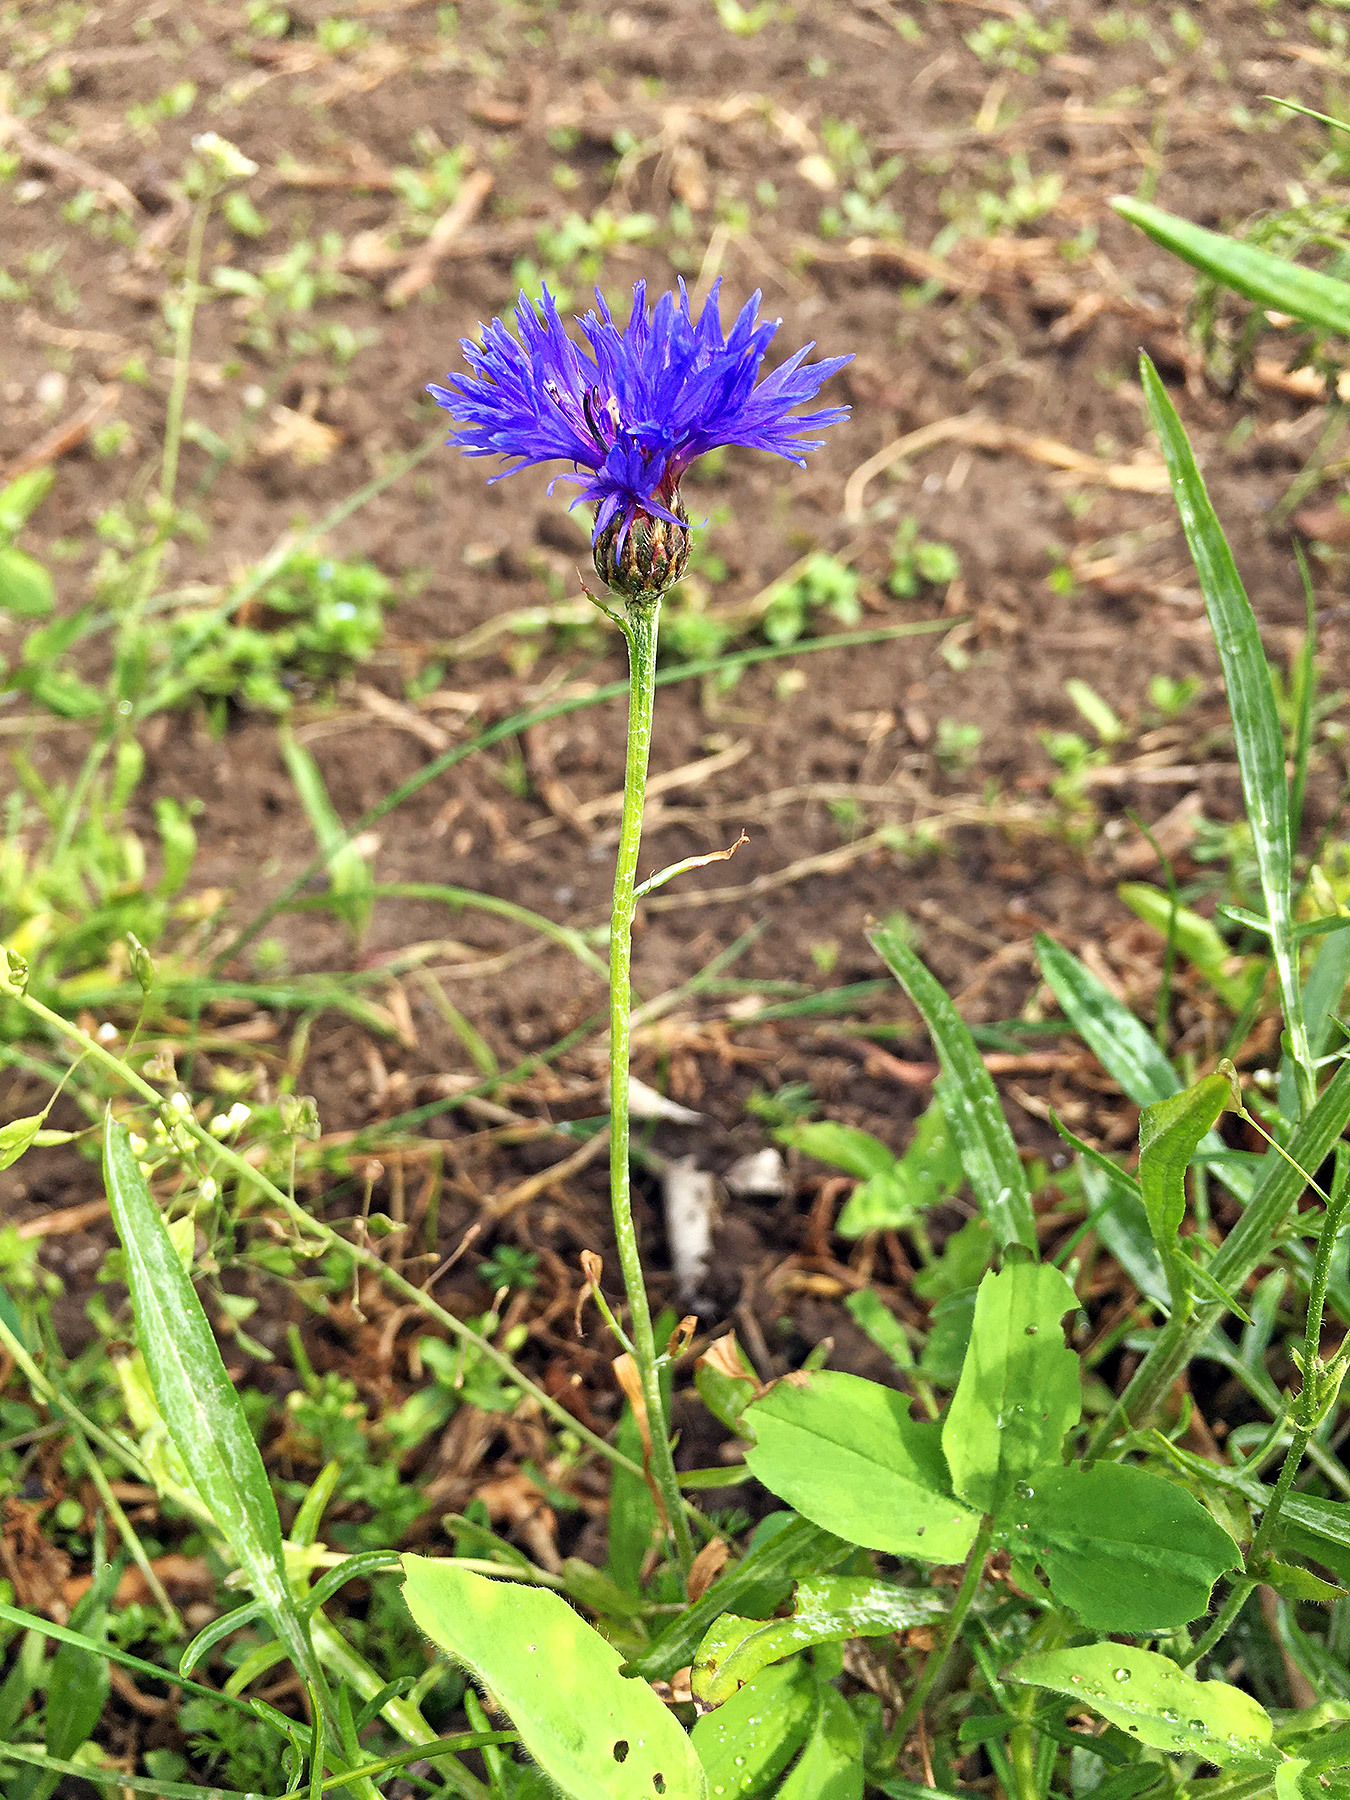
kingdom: Plantae
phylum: Tracheophyta
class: Magnoliopsida
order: Asterales
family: Asteraceae
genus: Centaurea
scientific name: Centaurea cyanus
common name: Cornflower
